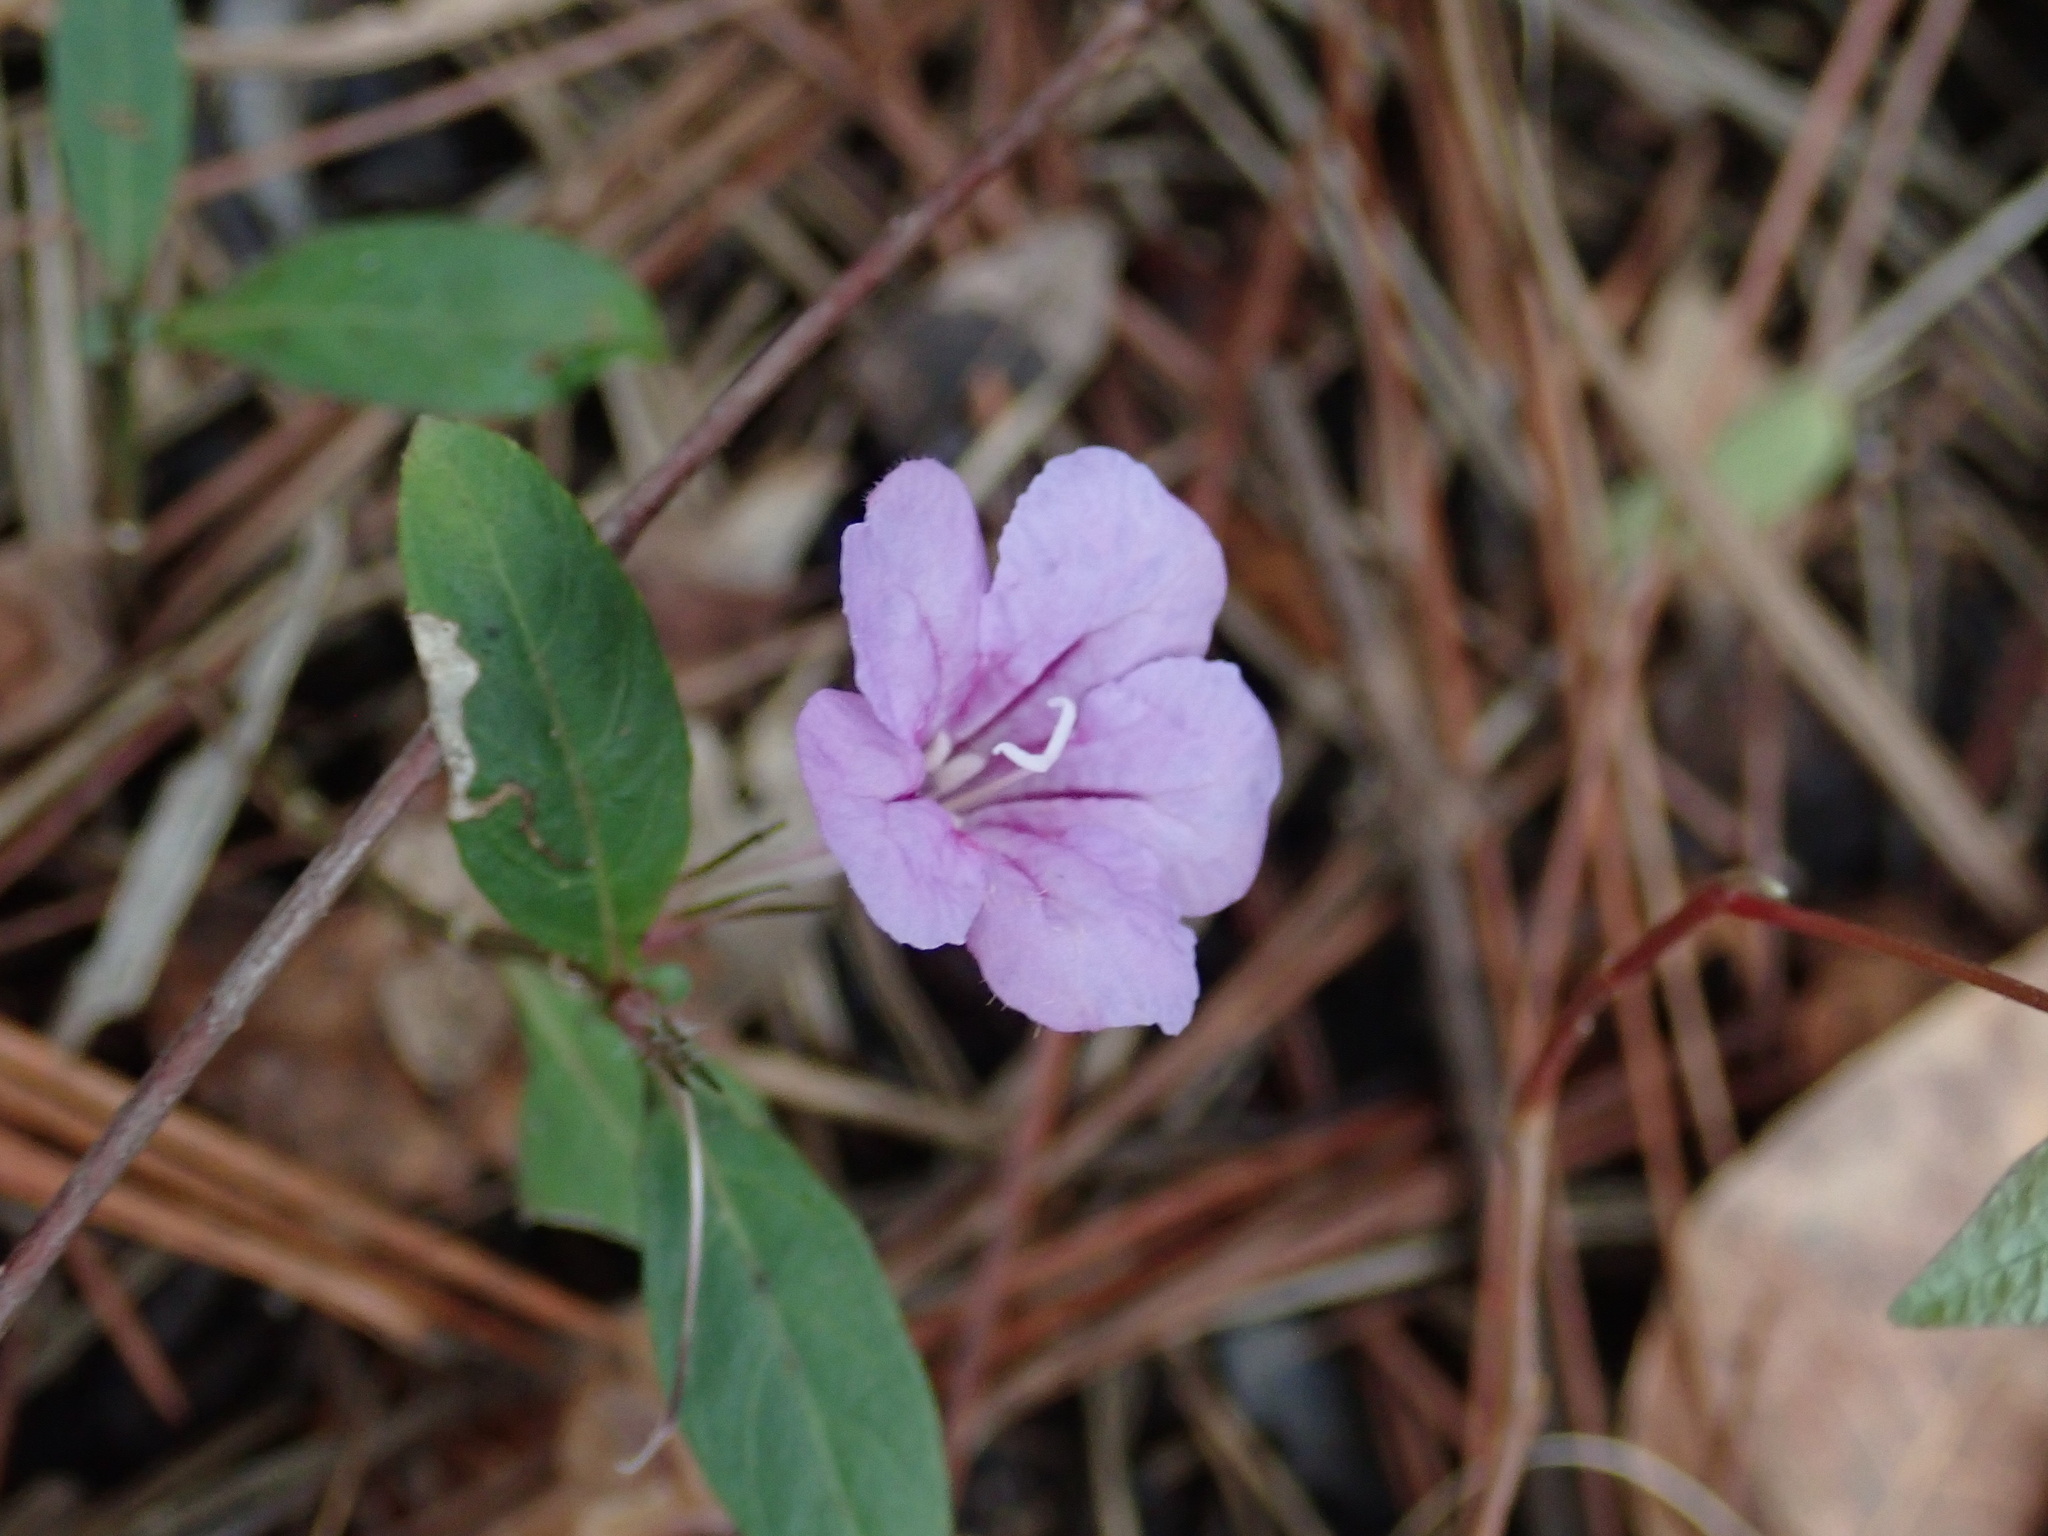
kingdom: Plantae
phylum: Tracheophyta
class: Magnoliopsida
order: Lamiales
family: Acanthaceae
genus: Ruellia
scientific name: Ruellia caroliniensis
